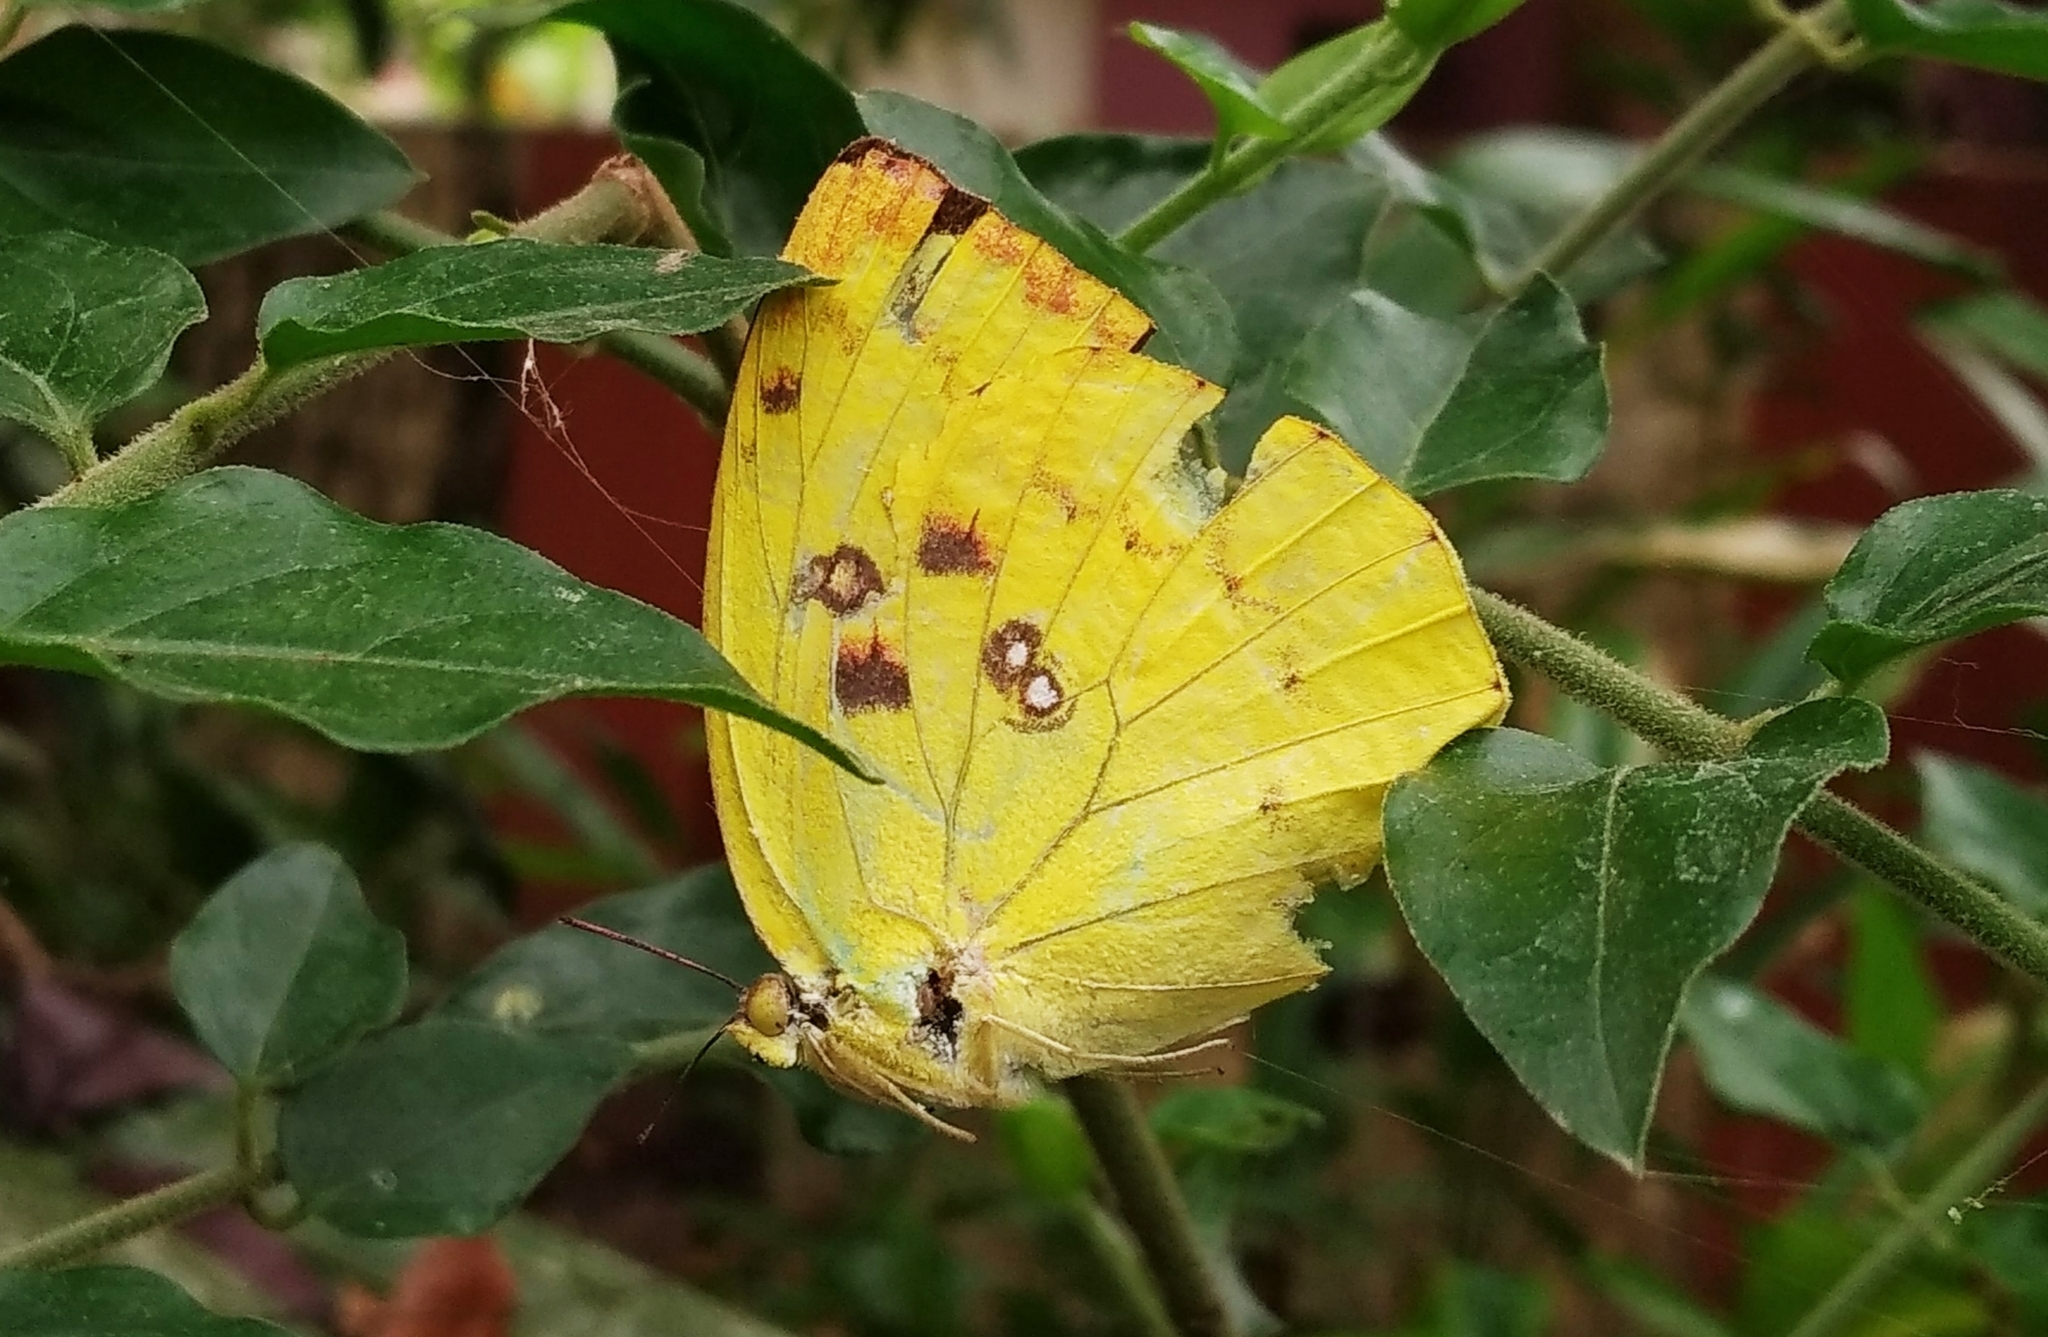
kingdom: Animalia
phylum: Arthropoda
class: Insecta
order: Lepidoptera
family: Pieridae
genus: Catopsilia
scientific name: Catopsilia pomona
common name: Common emigrant
